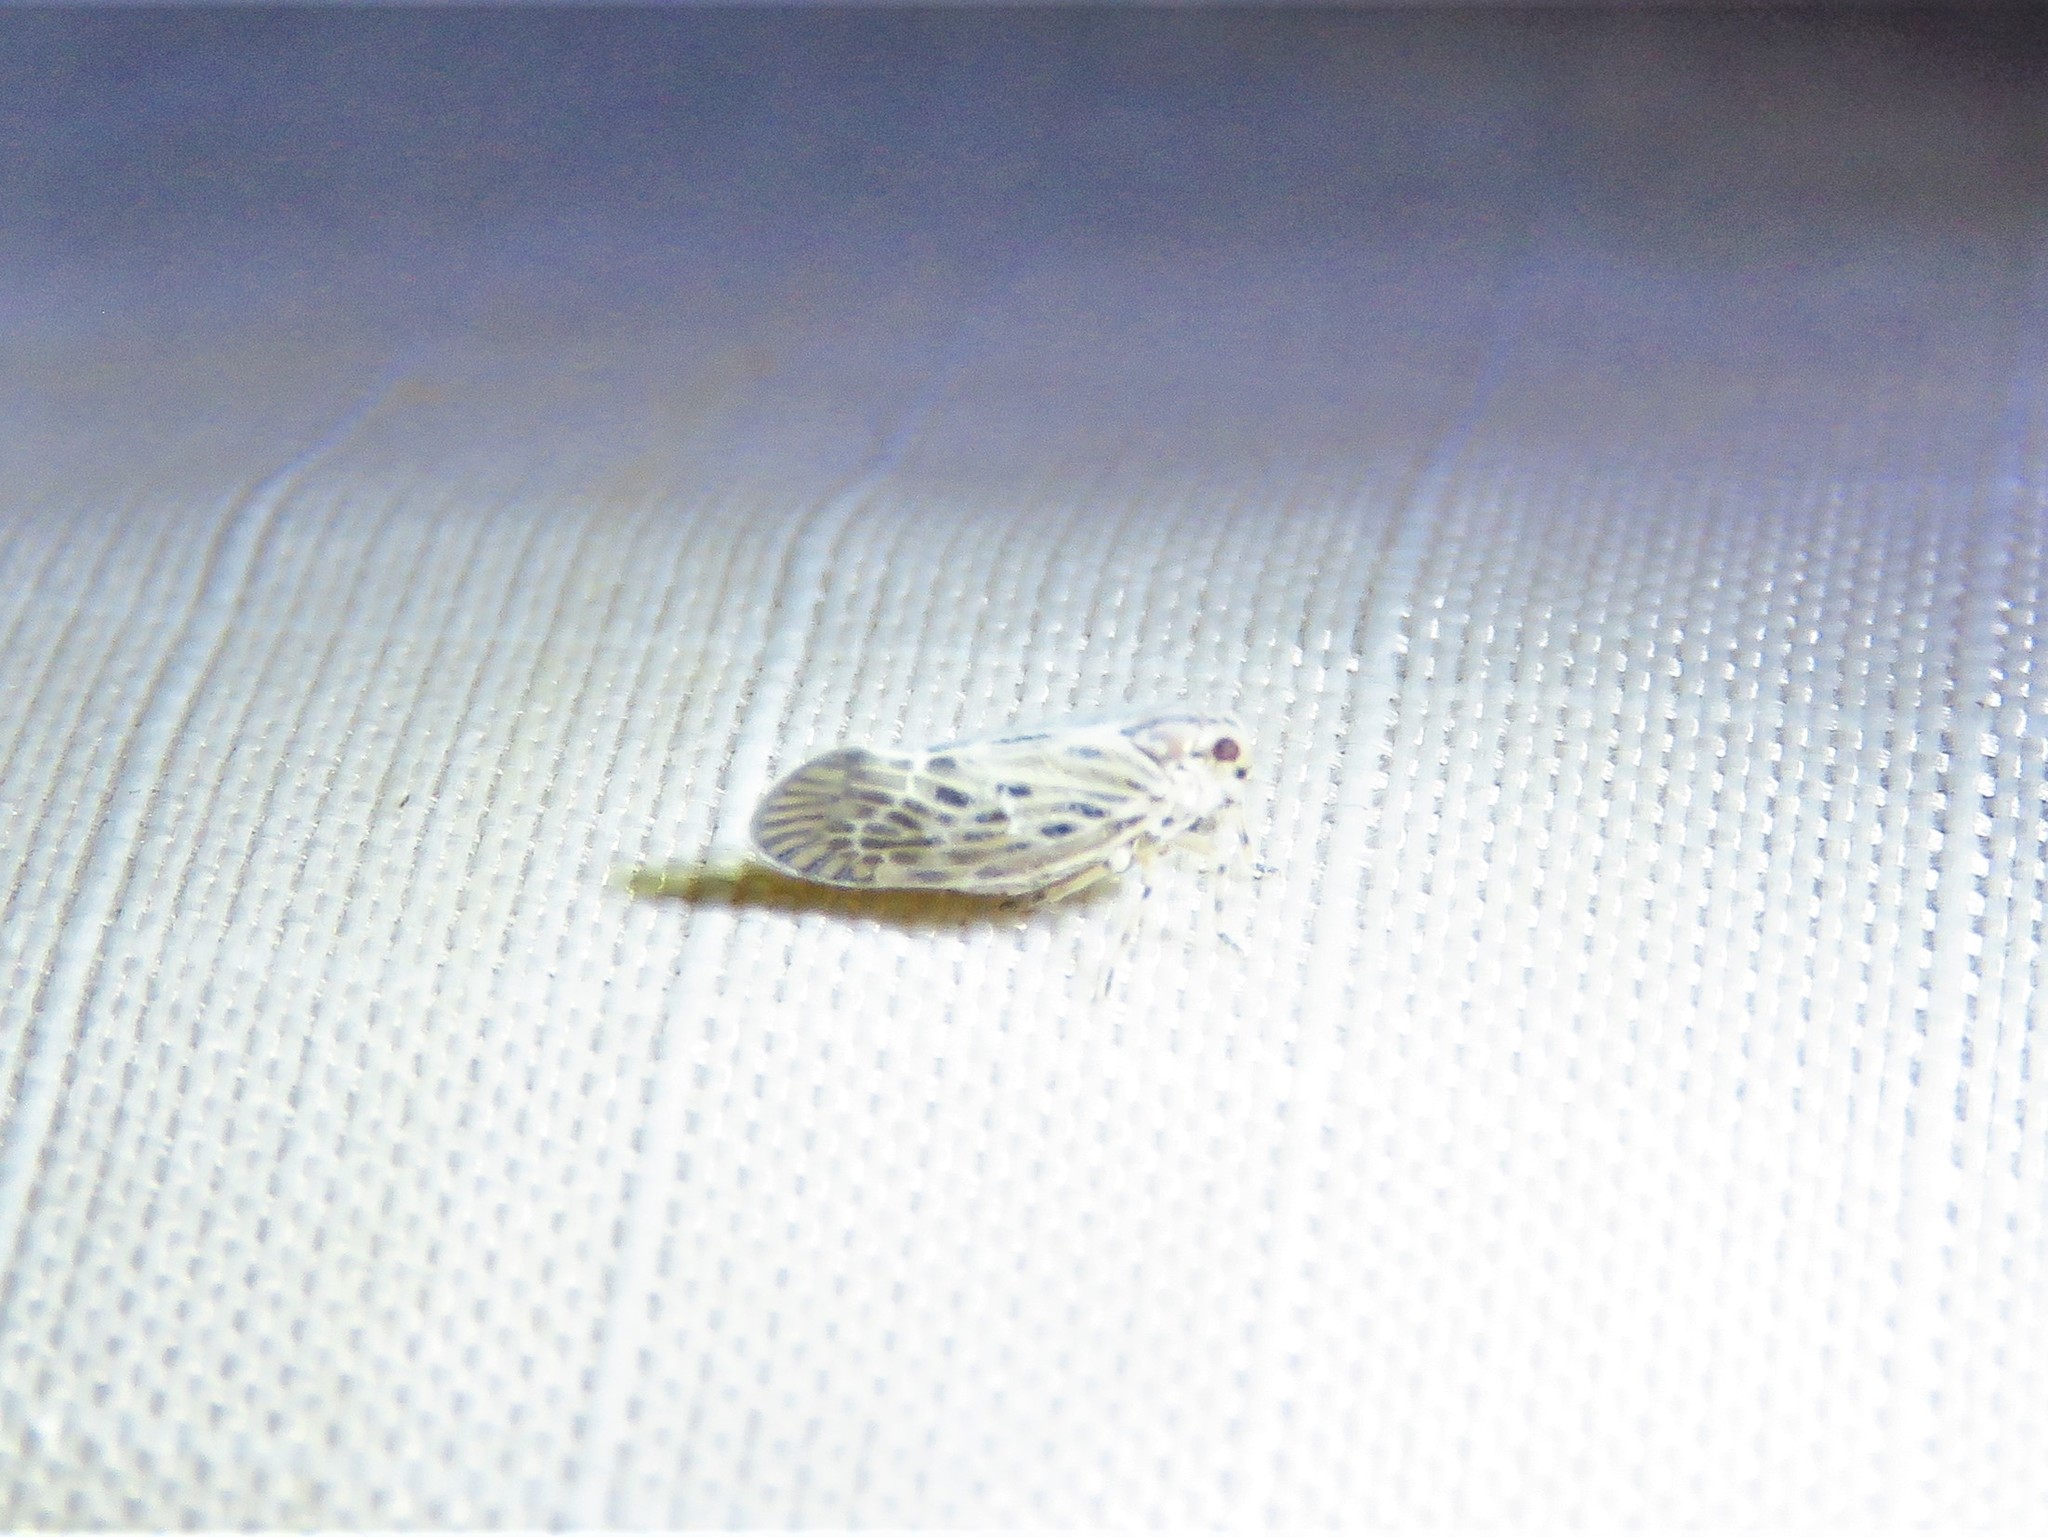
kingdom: Animalia
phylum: Arthropoda
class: Insecta
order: Hemiptera
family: Derbidae
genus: Cedusa
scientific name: Cedusa maculata
